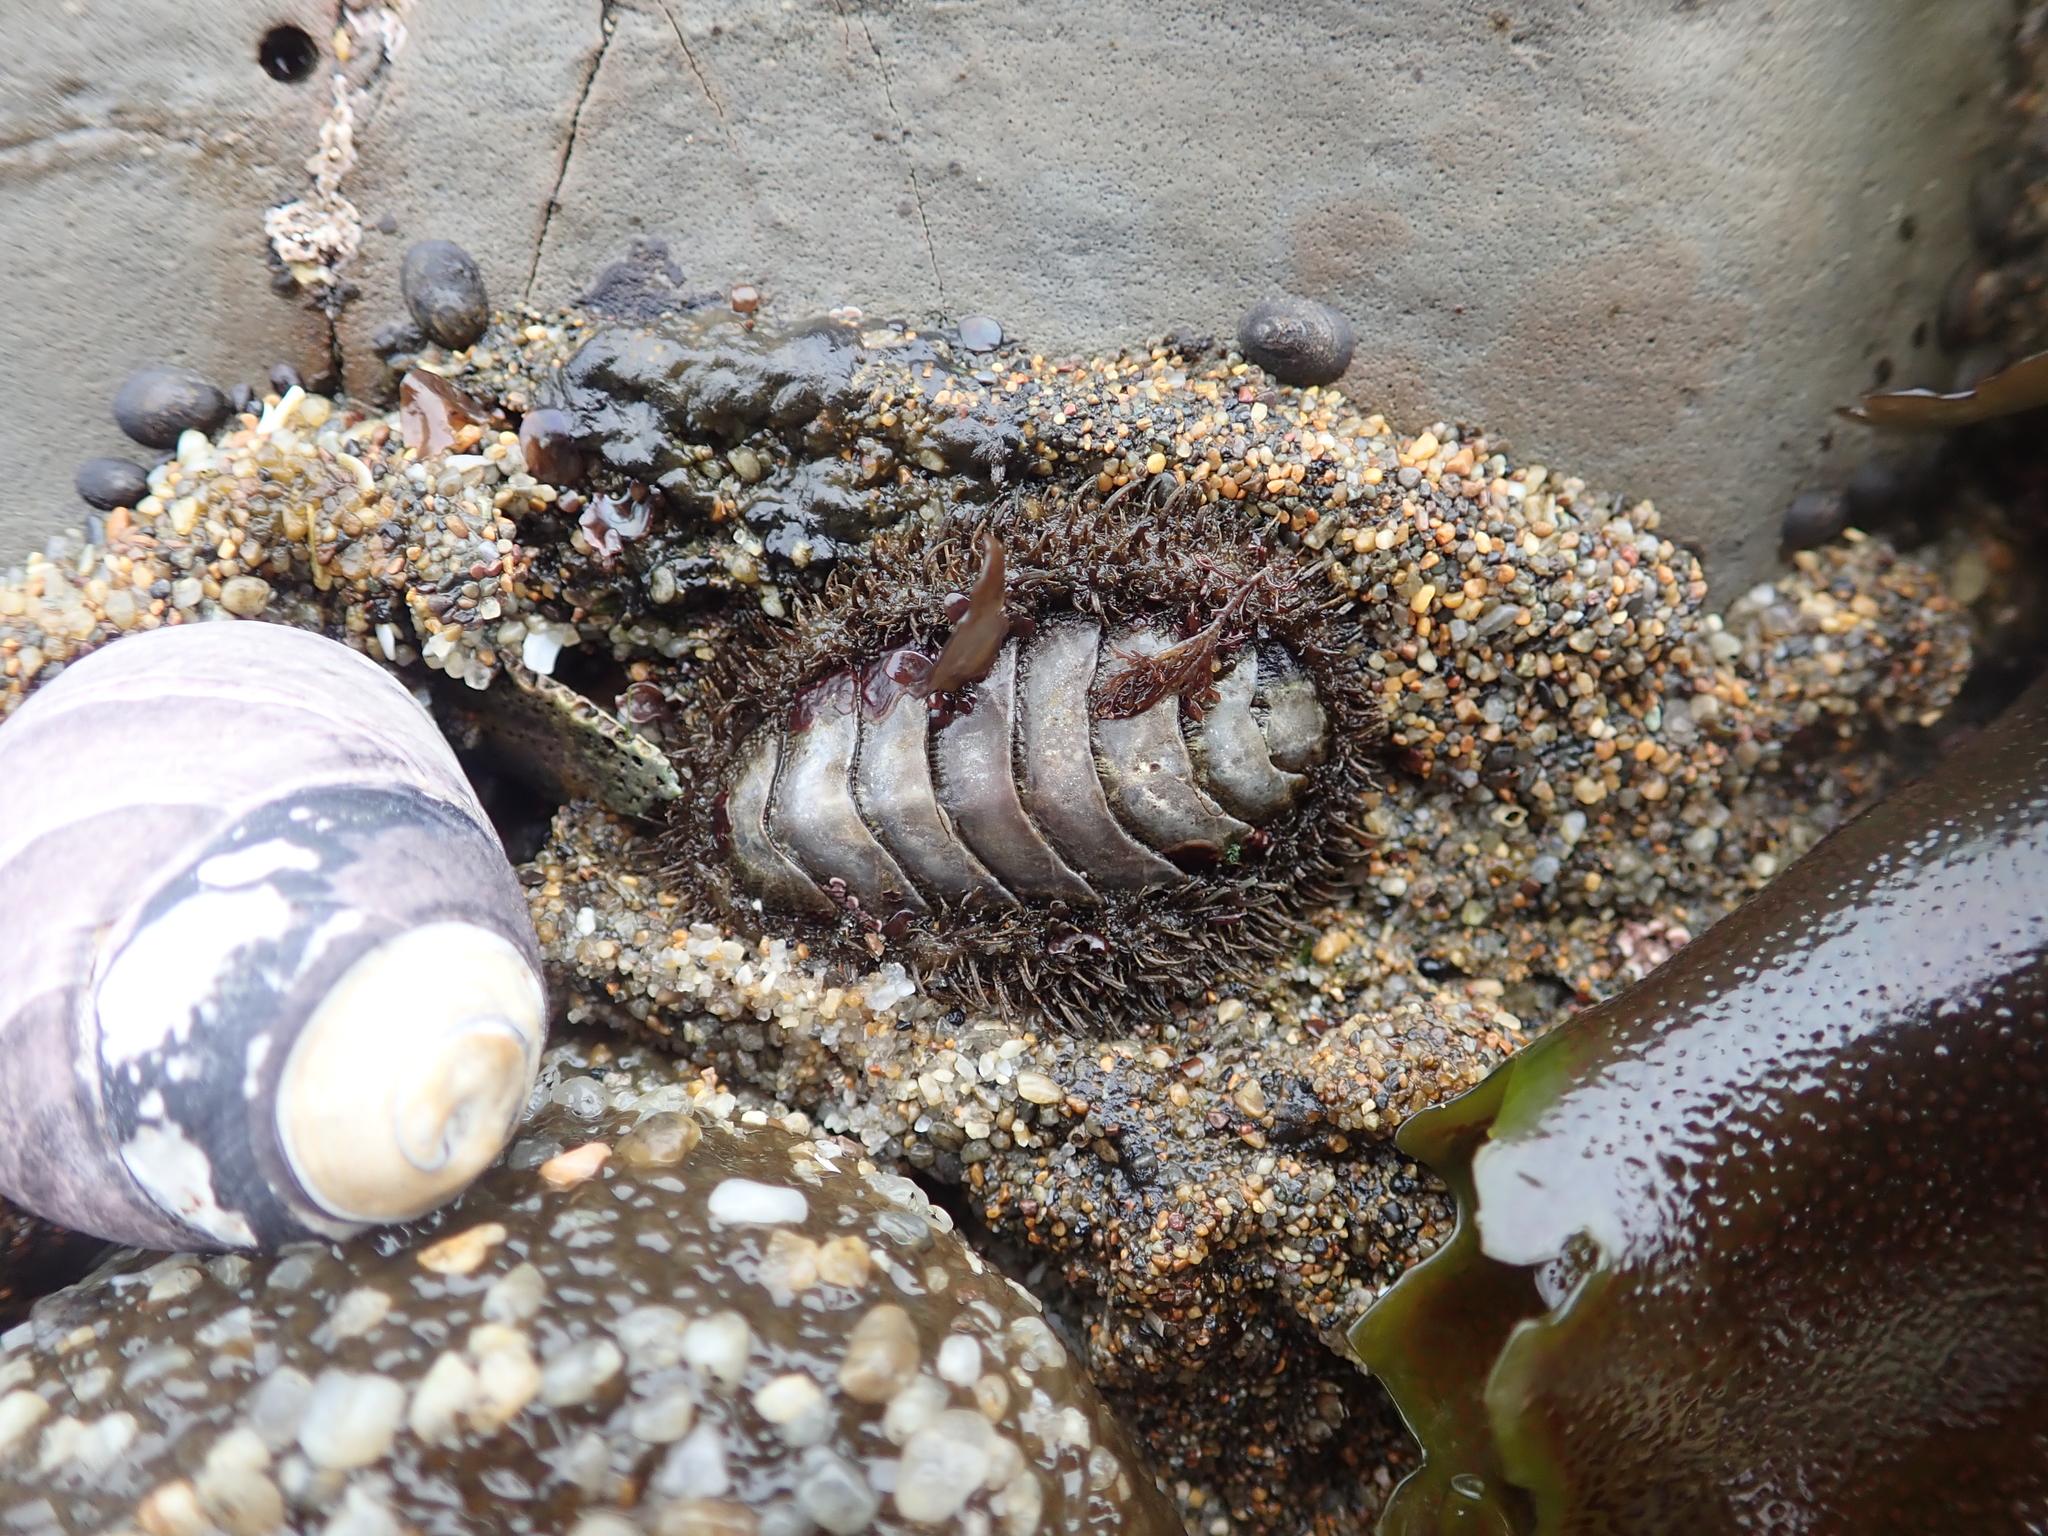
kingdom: Animalia
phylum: Mollusca
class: Polyplacophora
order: Chitonida
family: Mopaliidae
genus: Mopalia
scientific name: Mopalia muscosa
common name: Mossy chiton
